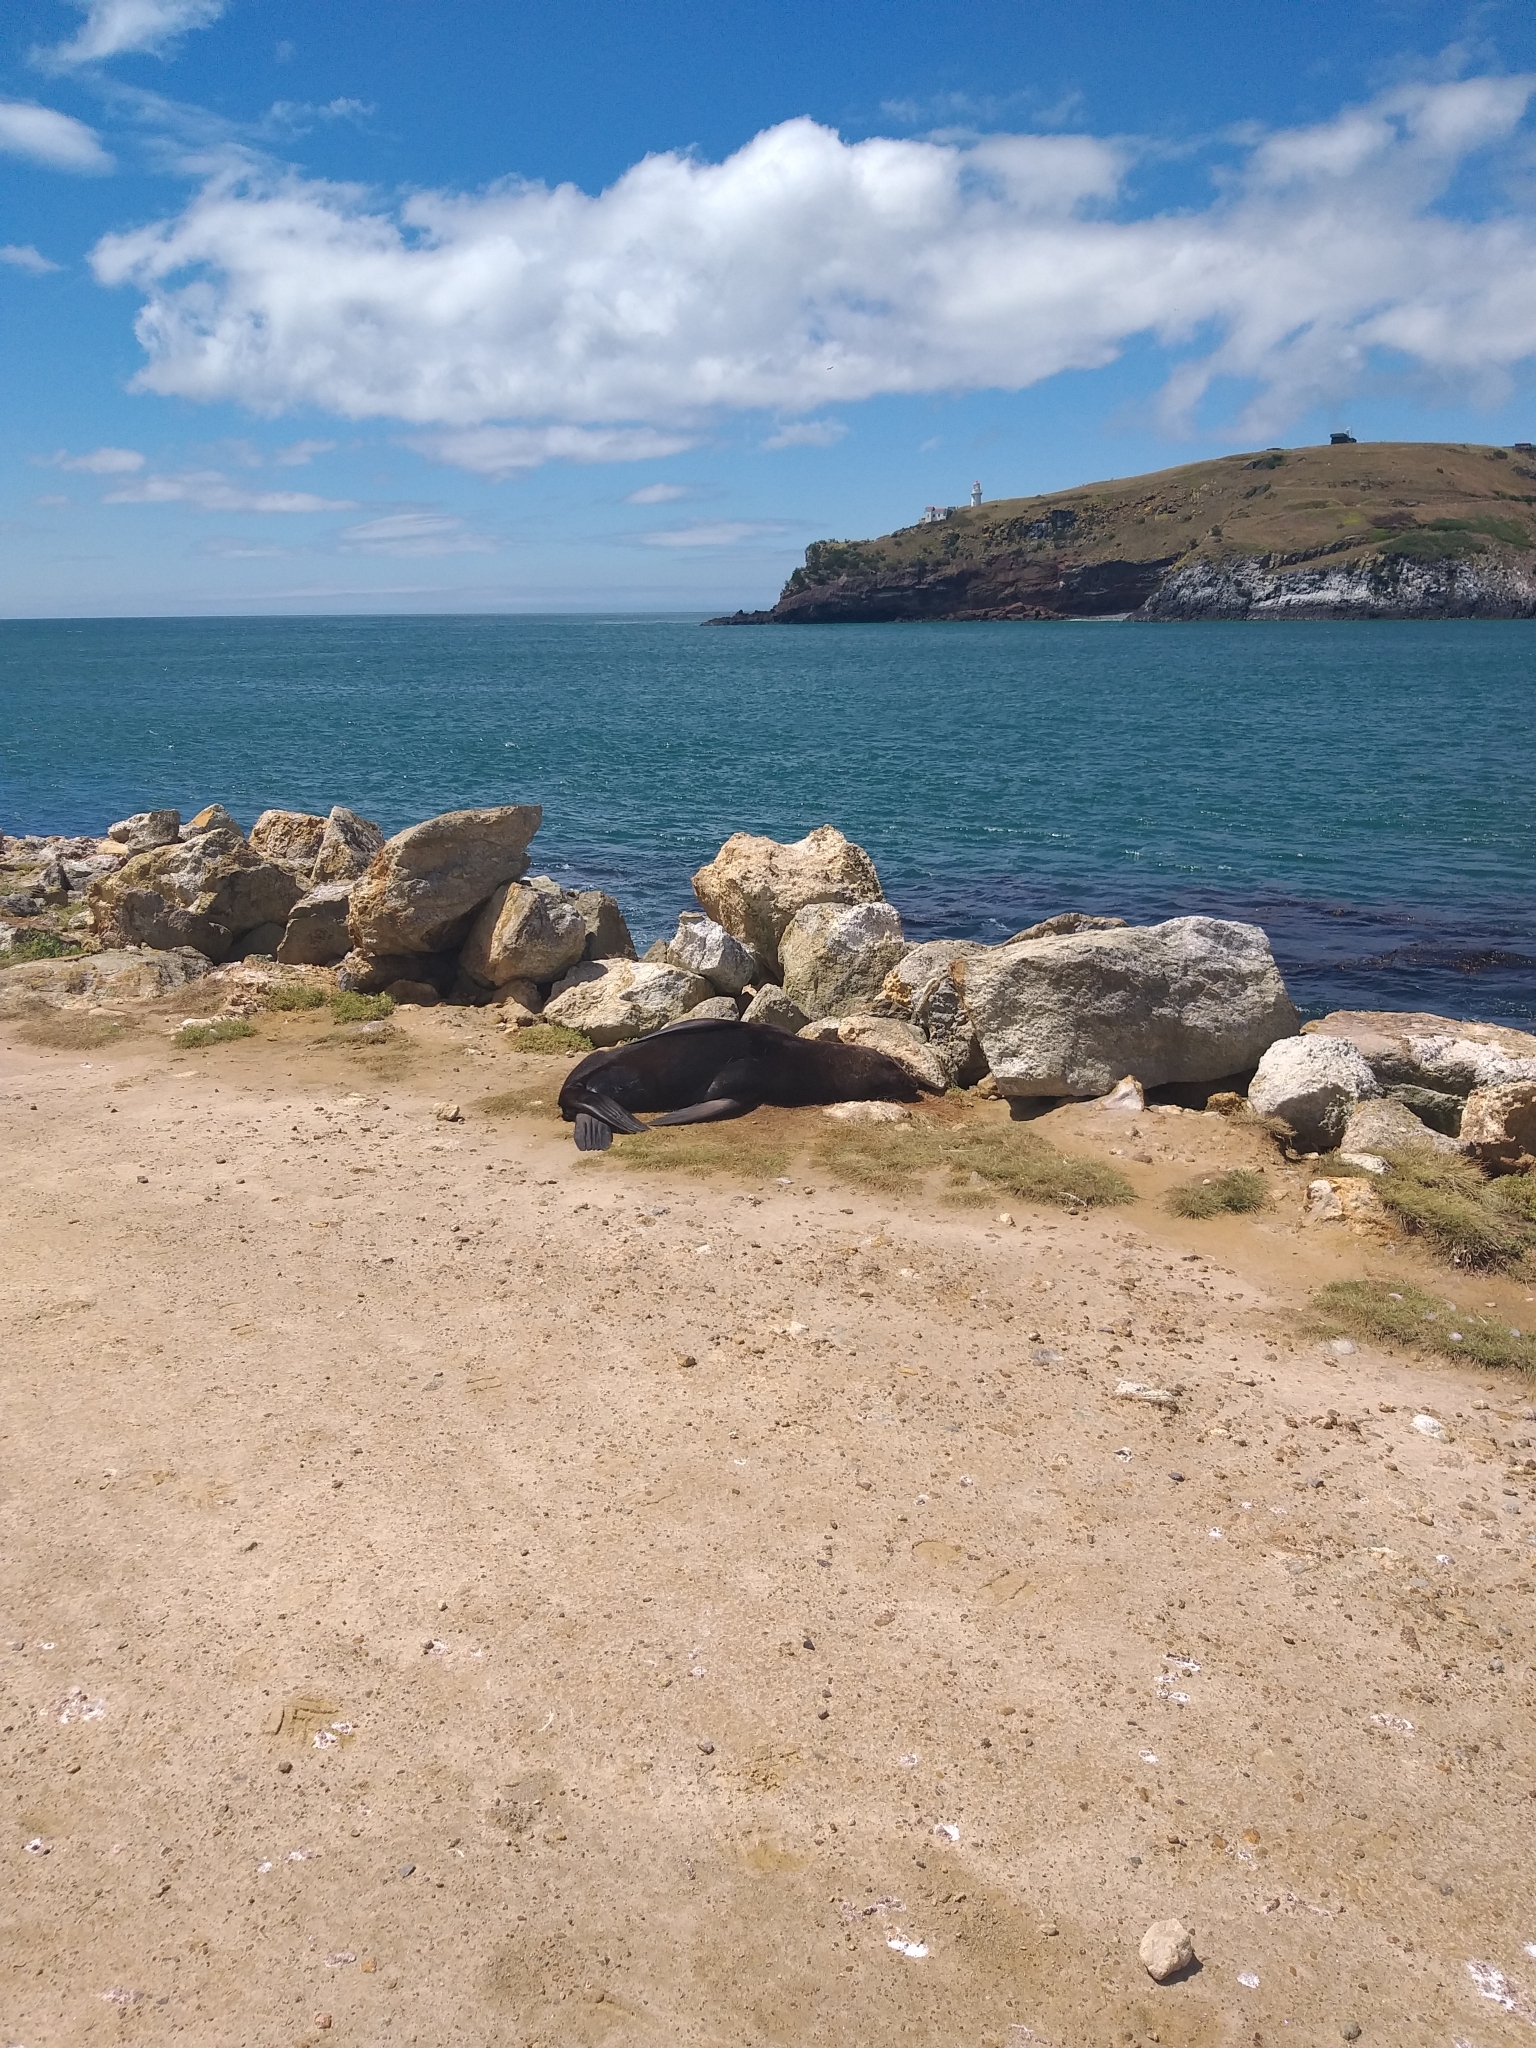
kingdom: Animalia
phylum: Chordata
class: Mammalia
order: Carnivora
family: Otariidae
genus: Arctocephalus
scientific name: Arctocephalus forsteri
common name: New zealand fur seal
